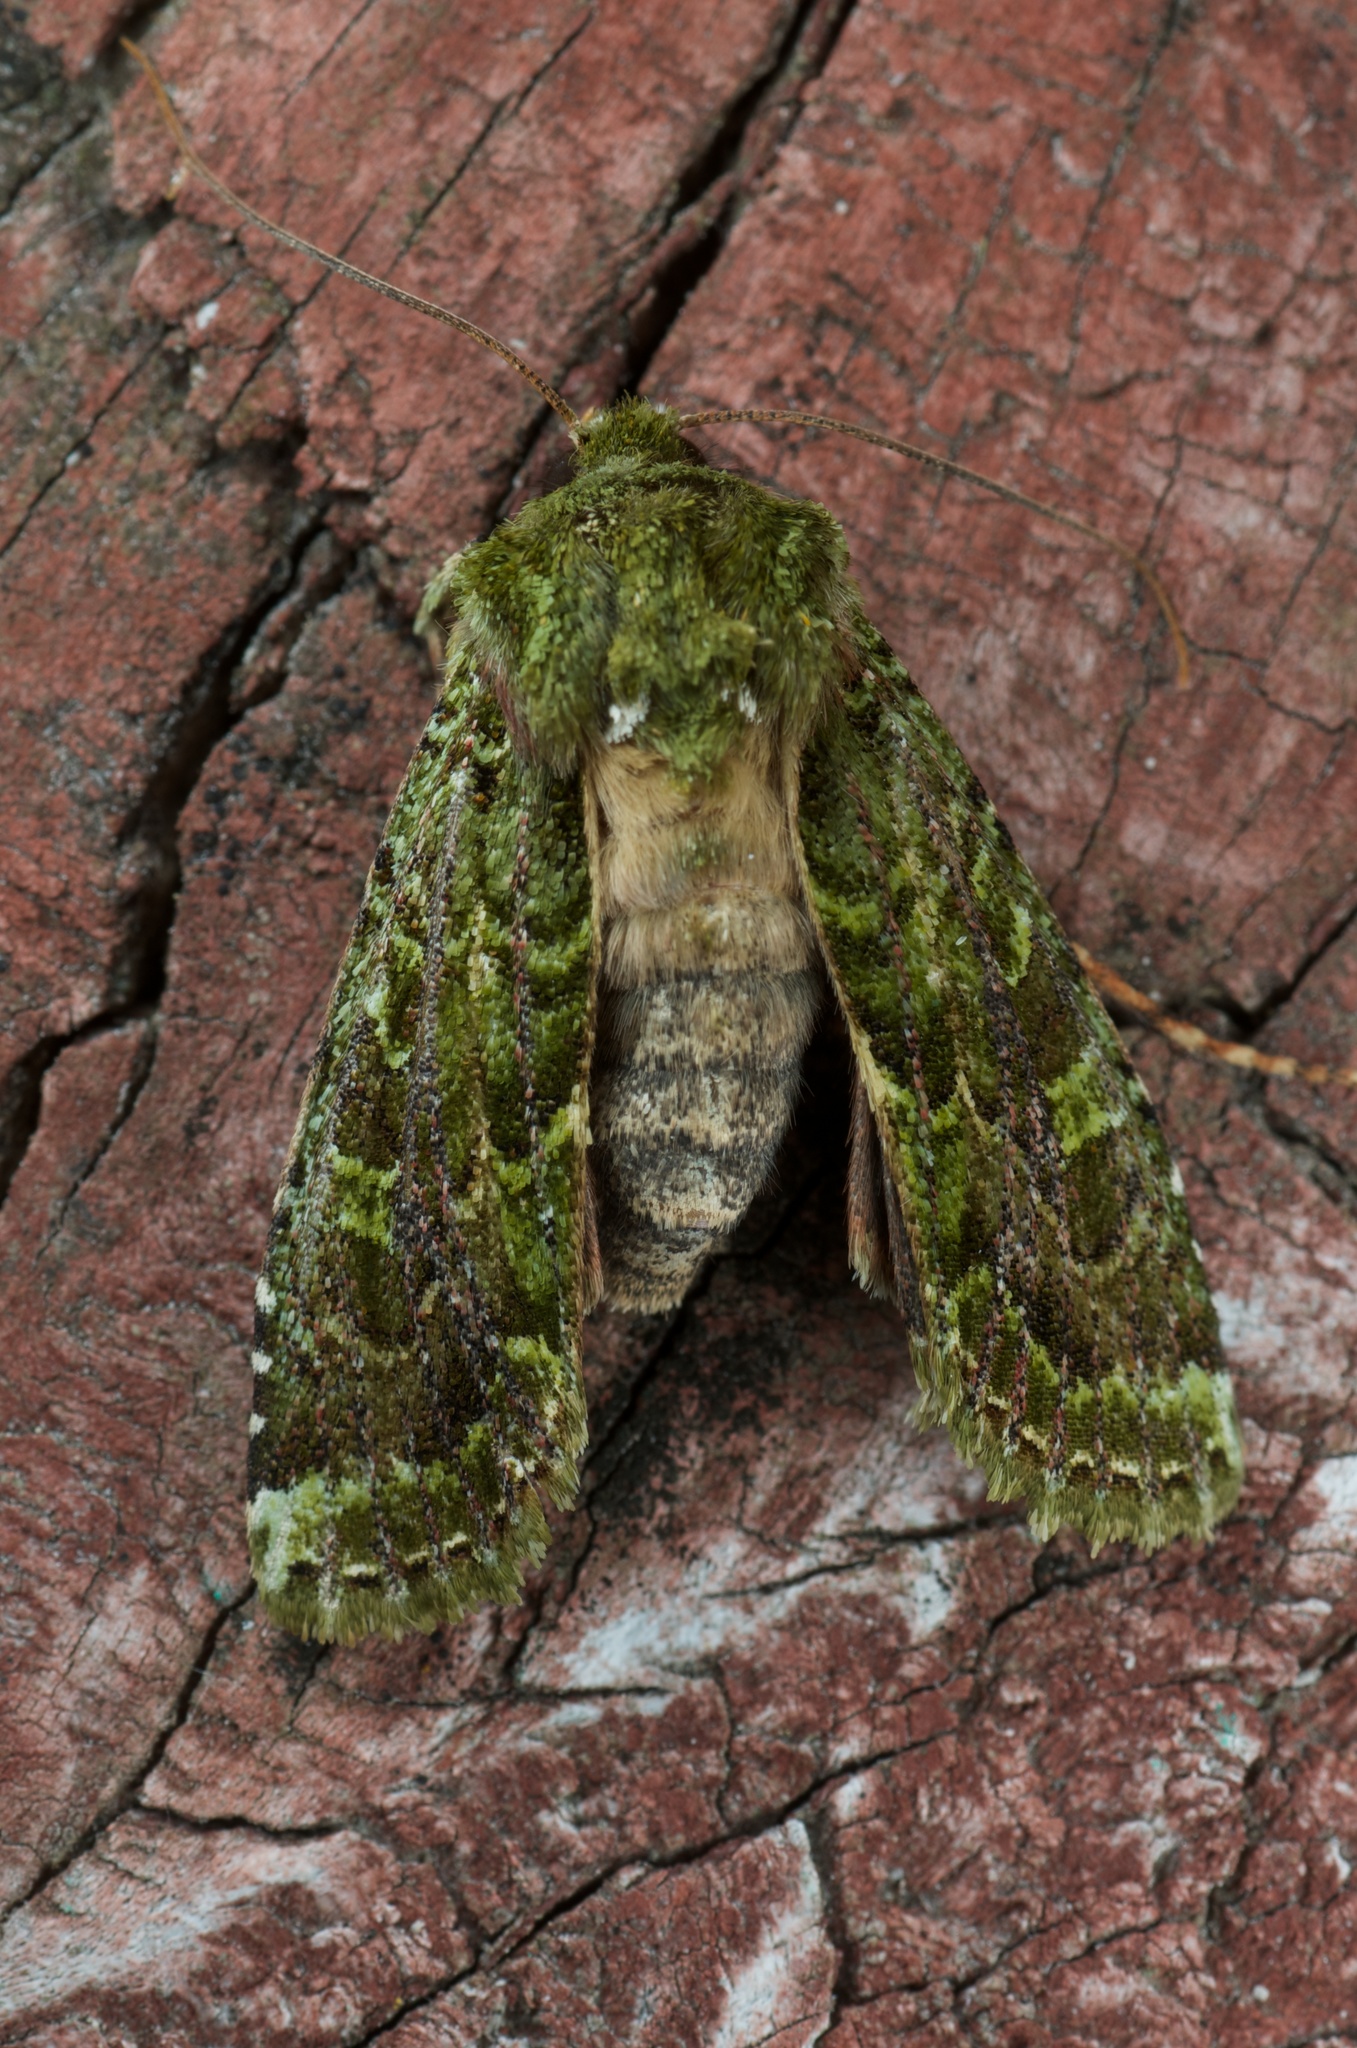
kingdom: Animalia
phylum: Arthropoda
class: Insecta
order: Lepidoptera
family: Noctuidae
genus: Feredayia
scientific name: Feredayia grammosa
